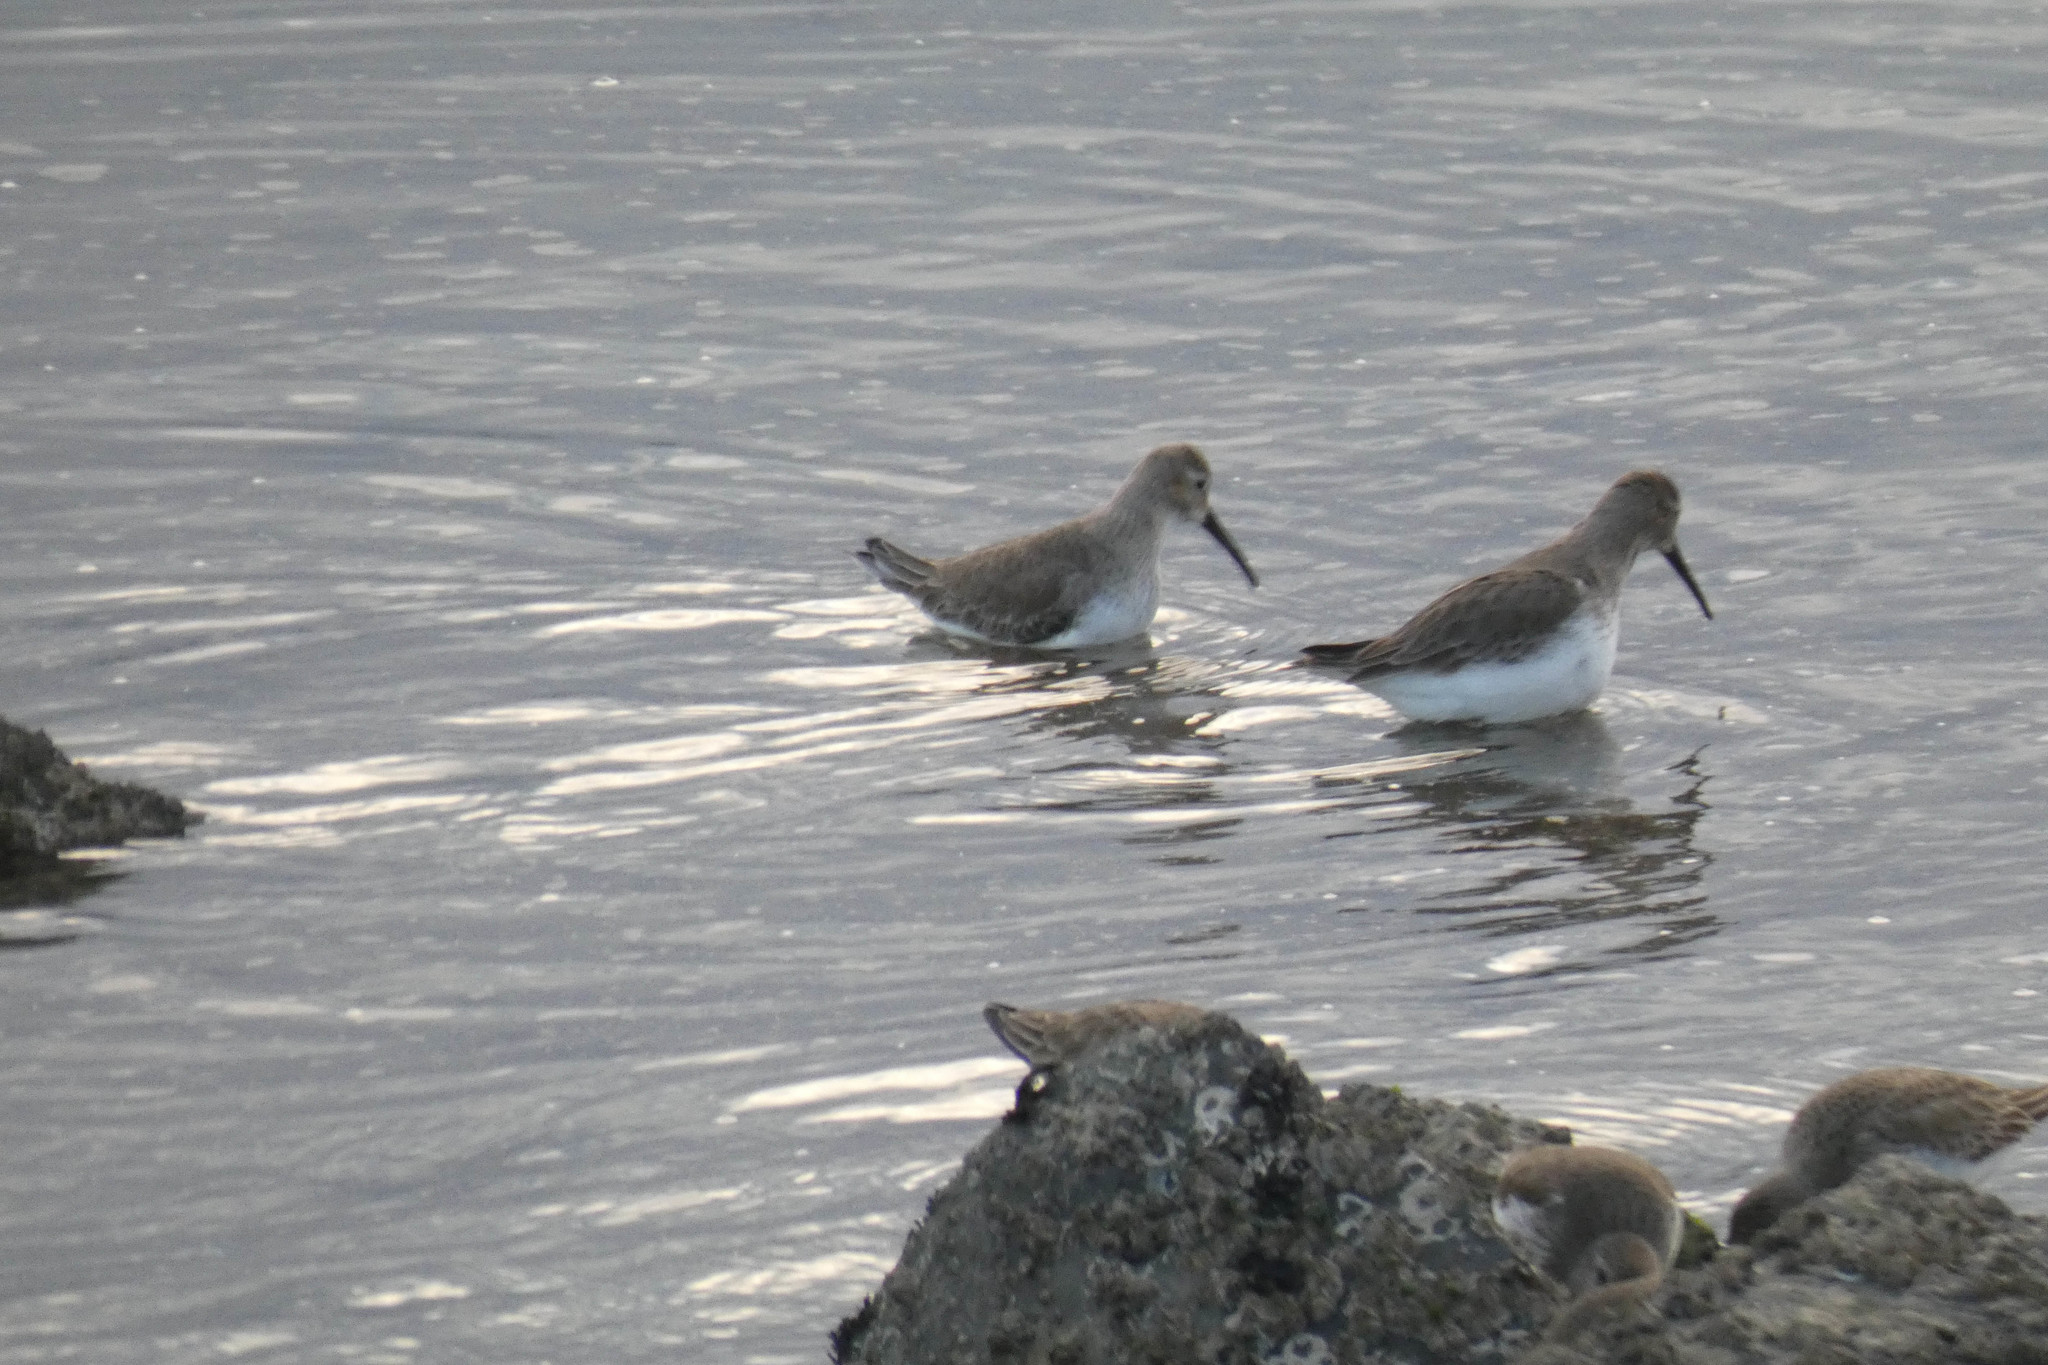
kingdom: Animalia
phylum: Chordata
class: Aves
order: Charadriiformes
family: Scolopacidae
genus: Calidris
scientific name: Calidris alpina
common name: Dunlin
